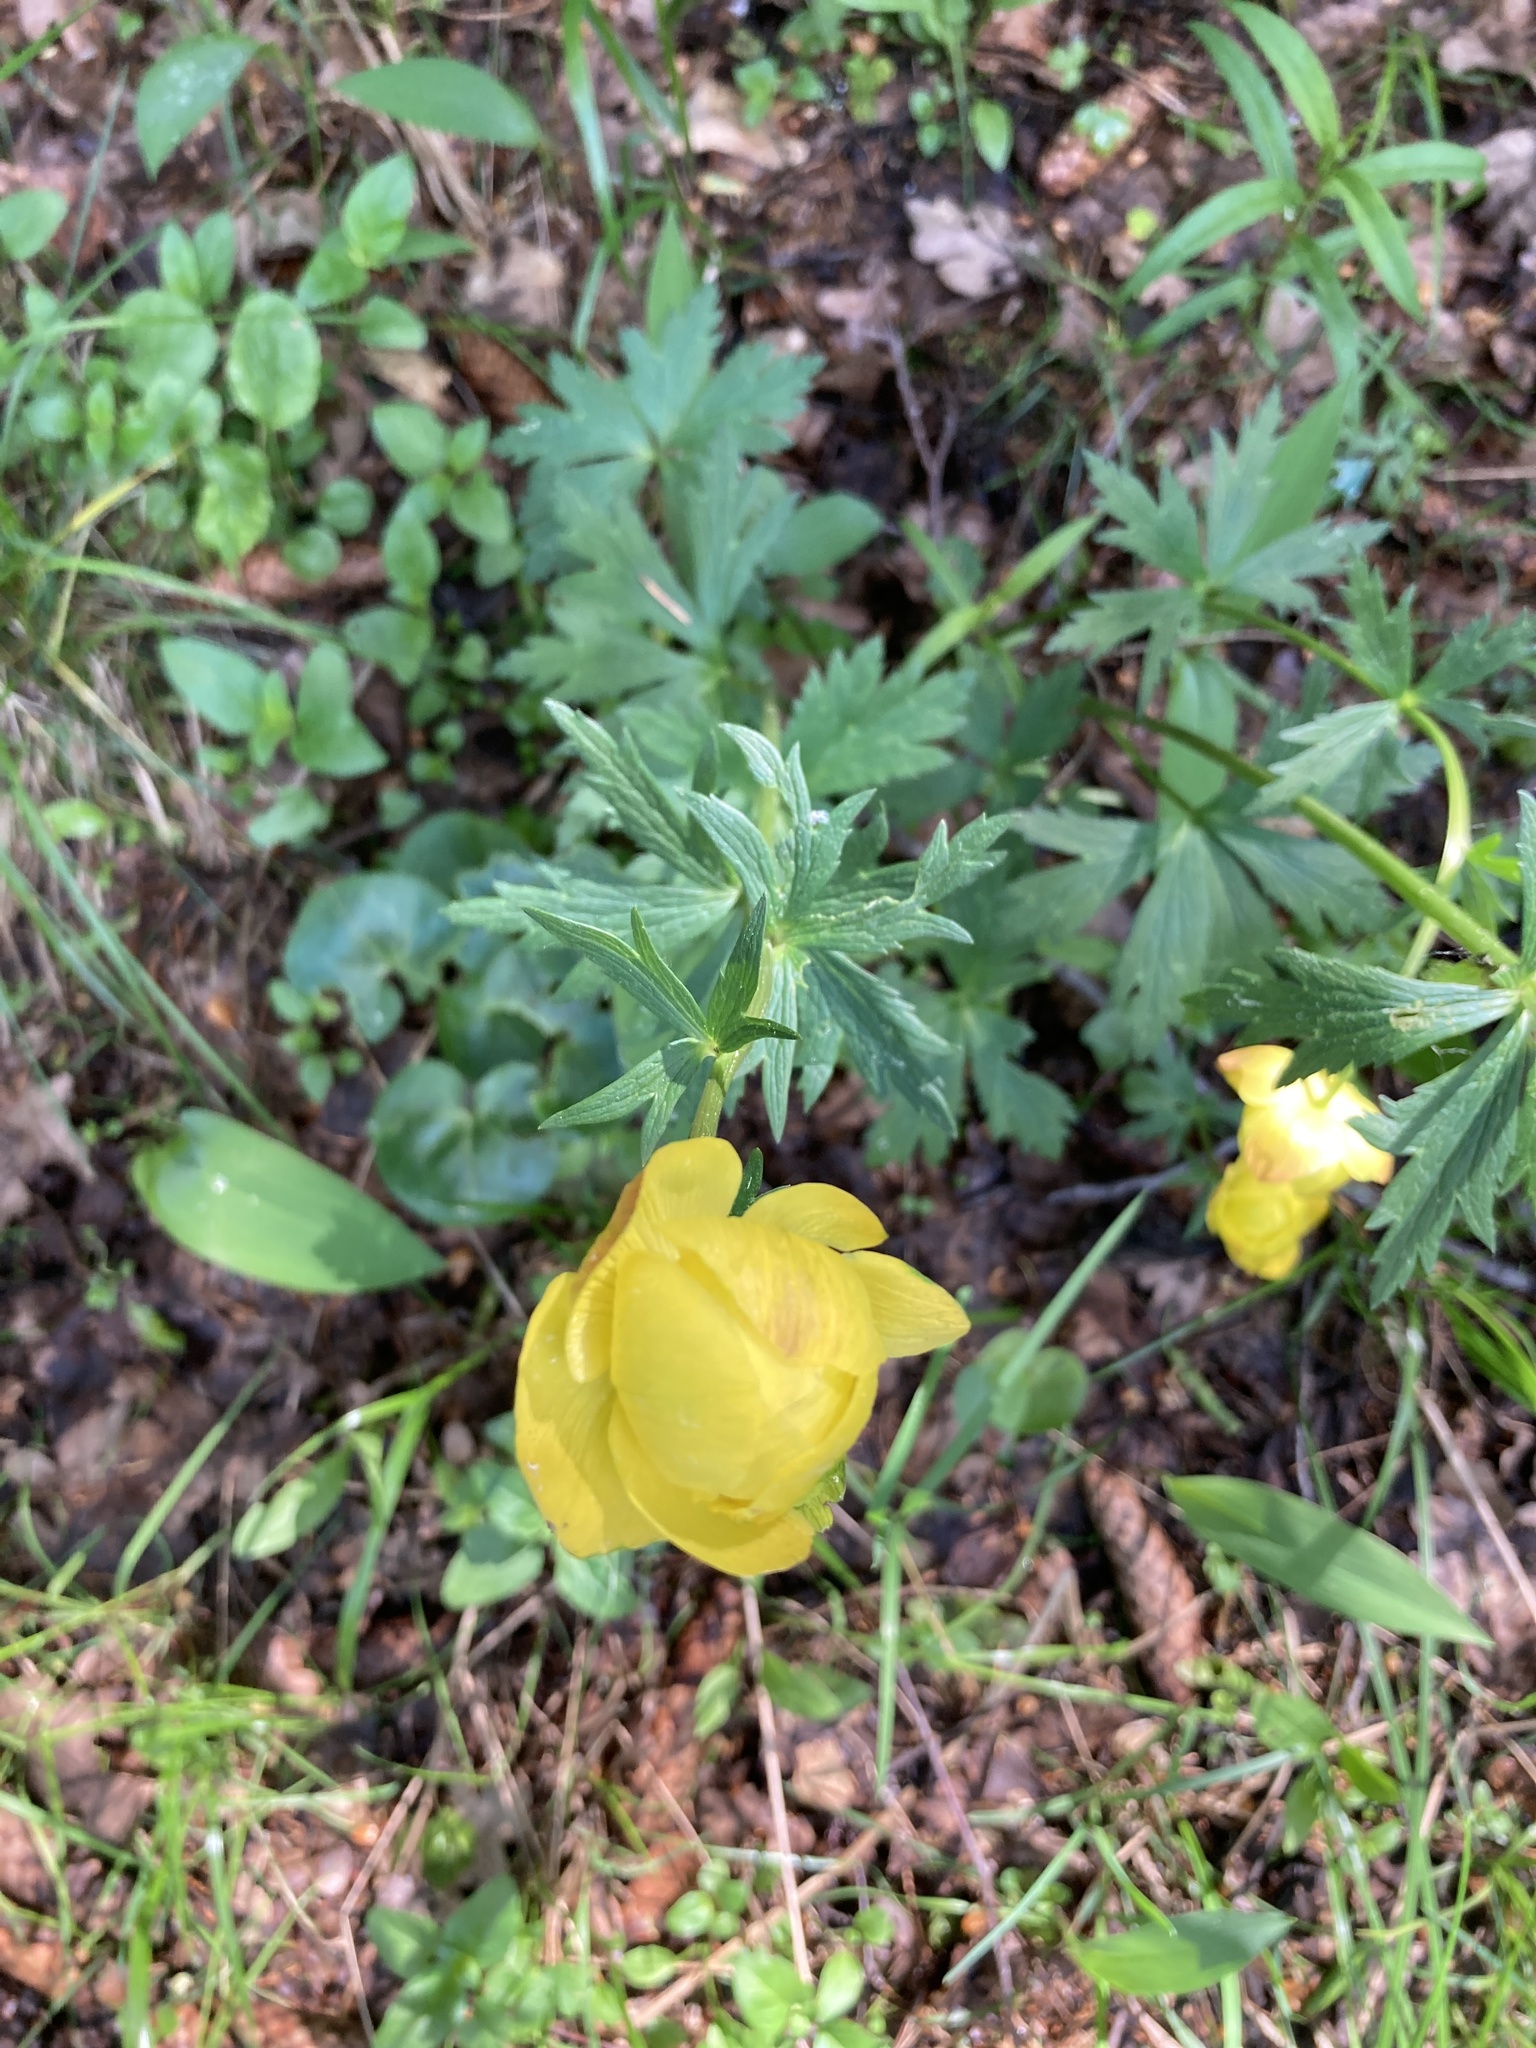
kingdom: Plantae
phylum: Tracheophyta
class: Magnoliopsida
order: Ranunculales
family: Ranunculaceae
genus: Trollius
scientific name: Trollius europaeus
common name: European globeflower
